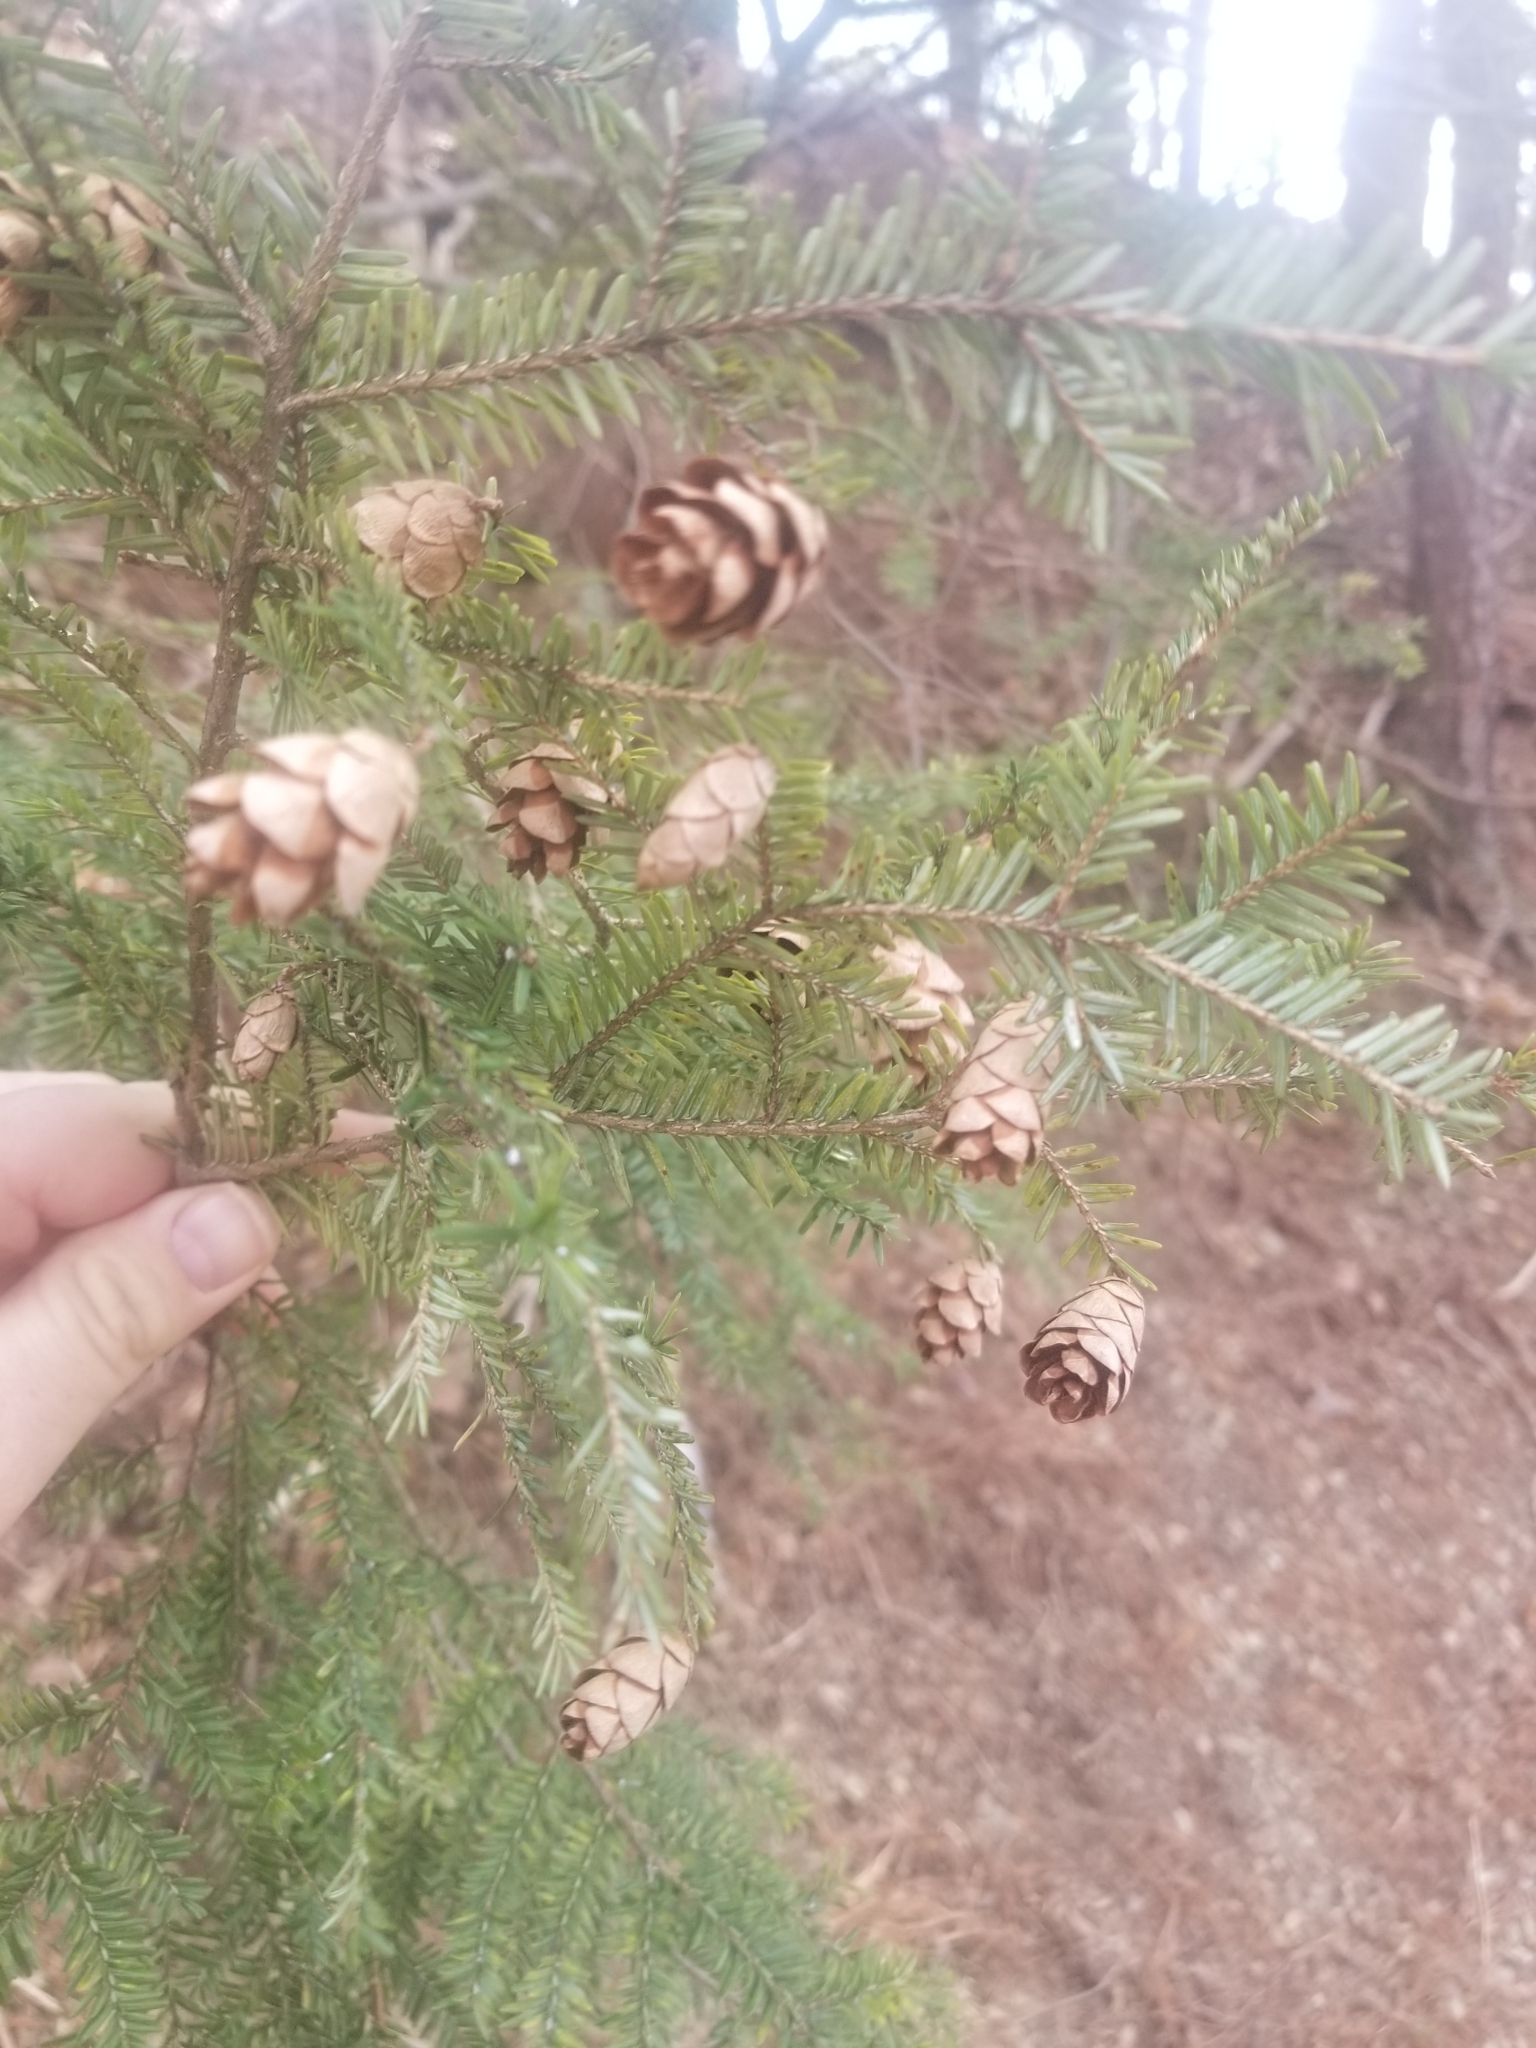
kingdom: Plantae
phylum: Tracheophyta
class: Pinopsida
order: Pinales
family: Pinaceae
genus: Tsuga
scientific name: Tsuga canadensis
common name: Eastern hemlock
